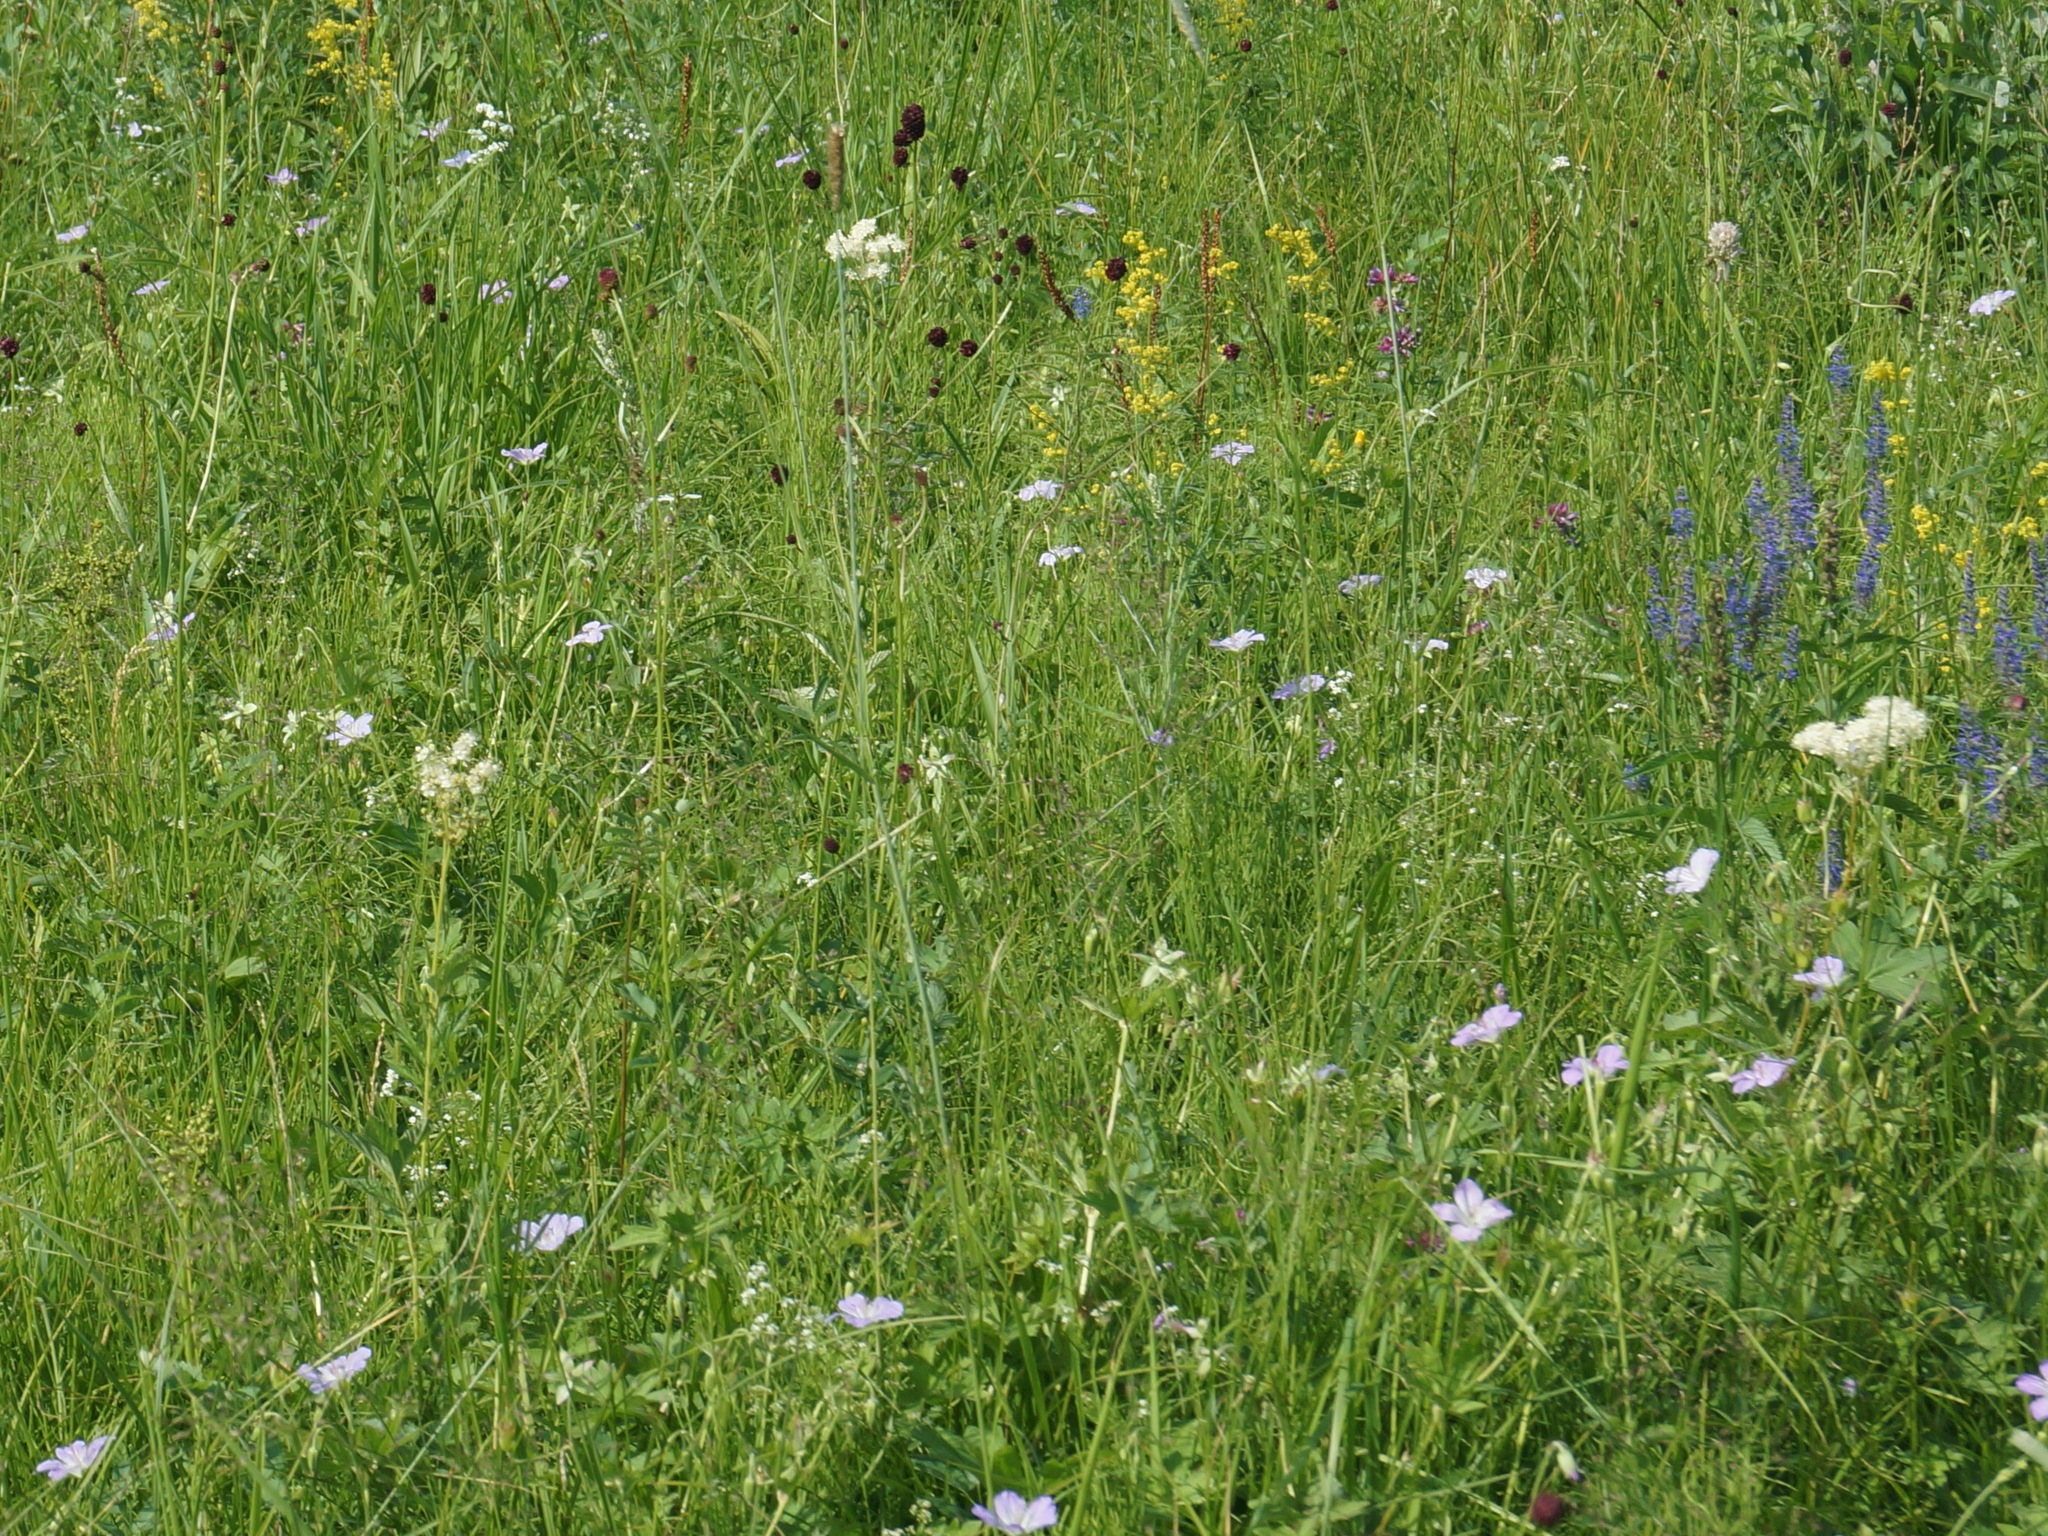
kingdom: Plantae
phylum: Tracheophyta
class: Magnoliopsida
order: Rosales
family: Rosaceae
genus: Filipendula
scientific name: Filipendula digitata
